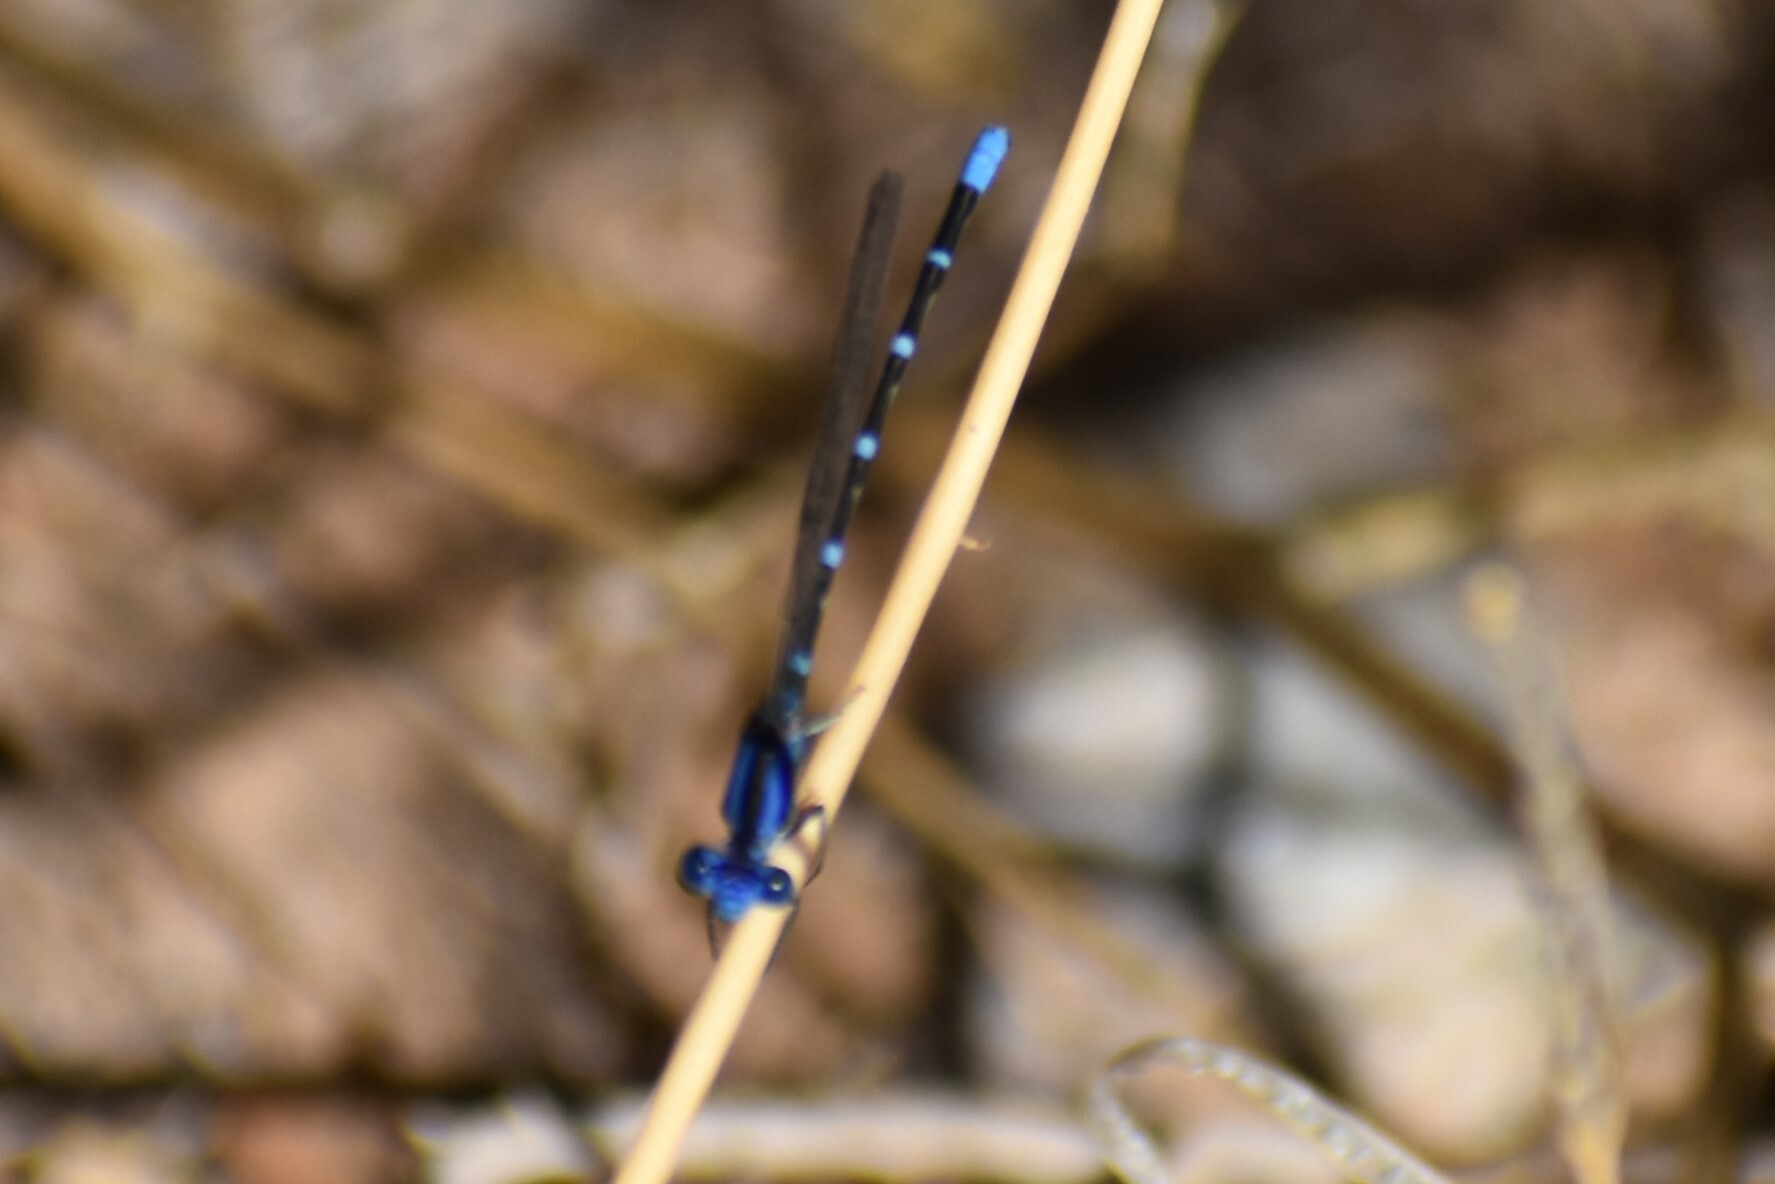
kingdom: Animalia
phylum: Arthropoda
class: Insecta
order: Odonata
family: Coenagrionidae
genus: Argia
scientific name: Argia sedula
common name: Blue-ringed dancer
